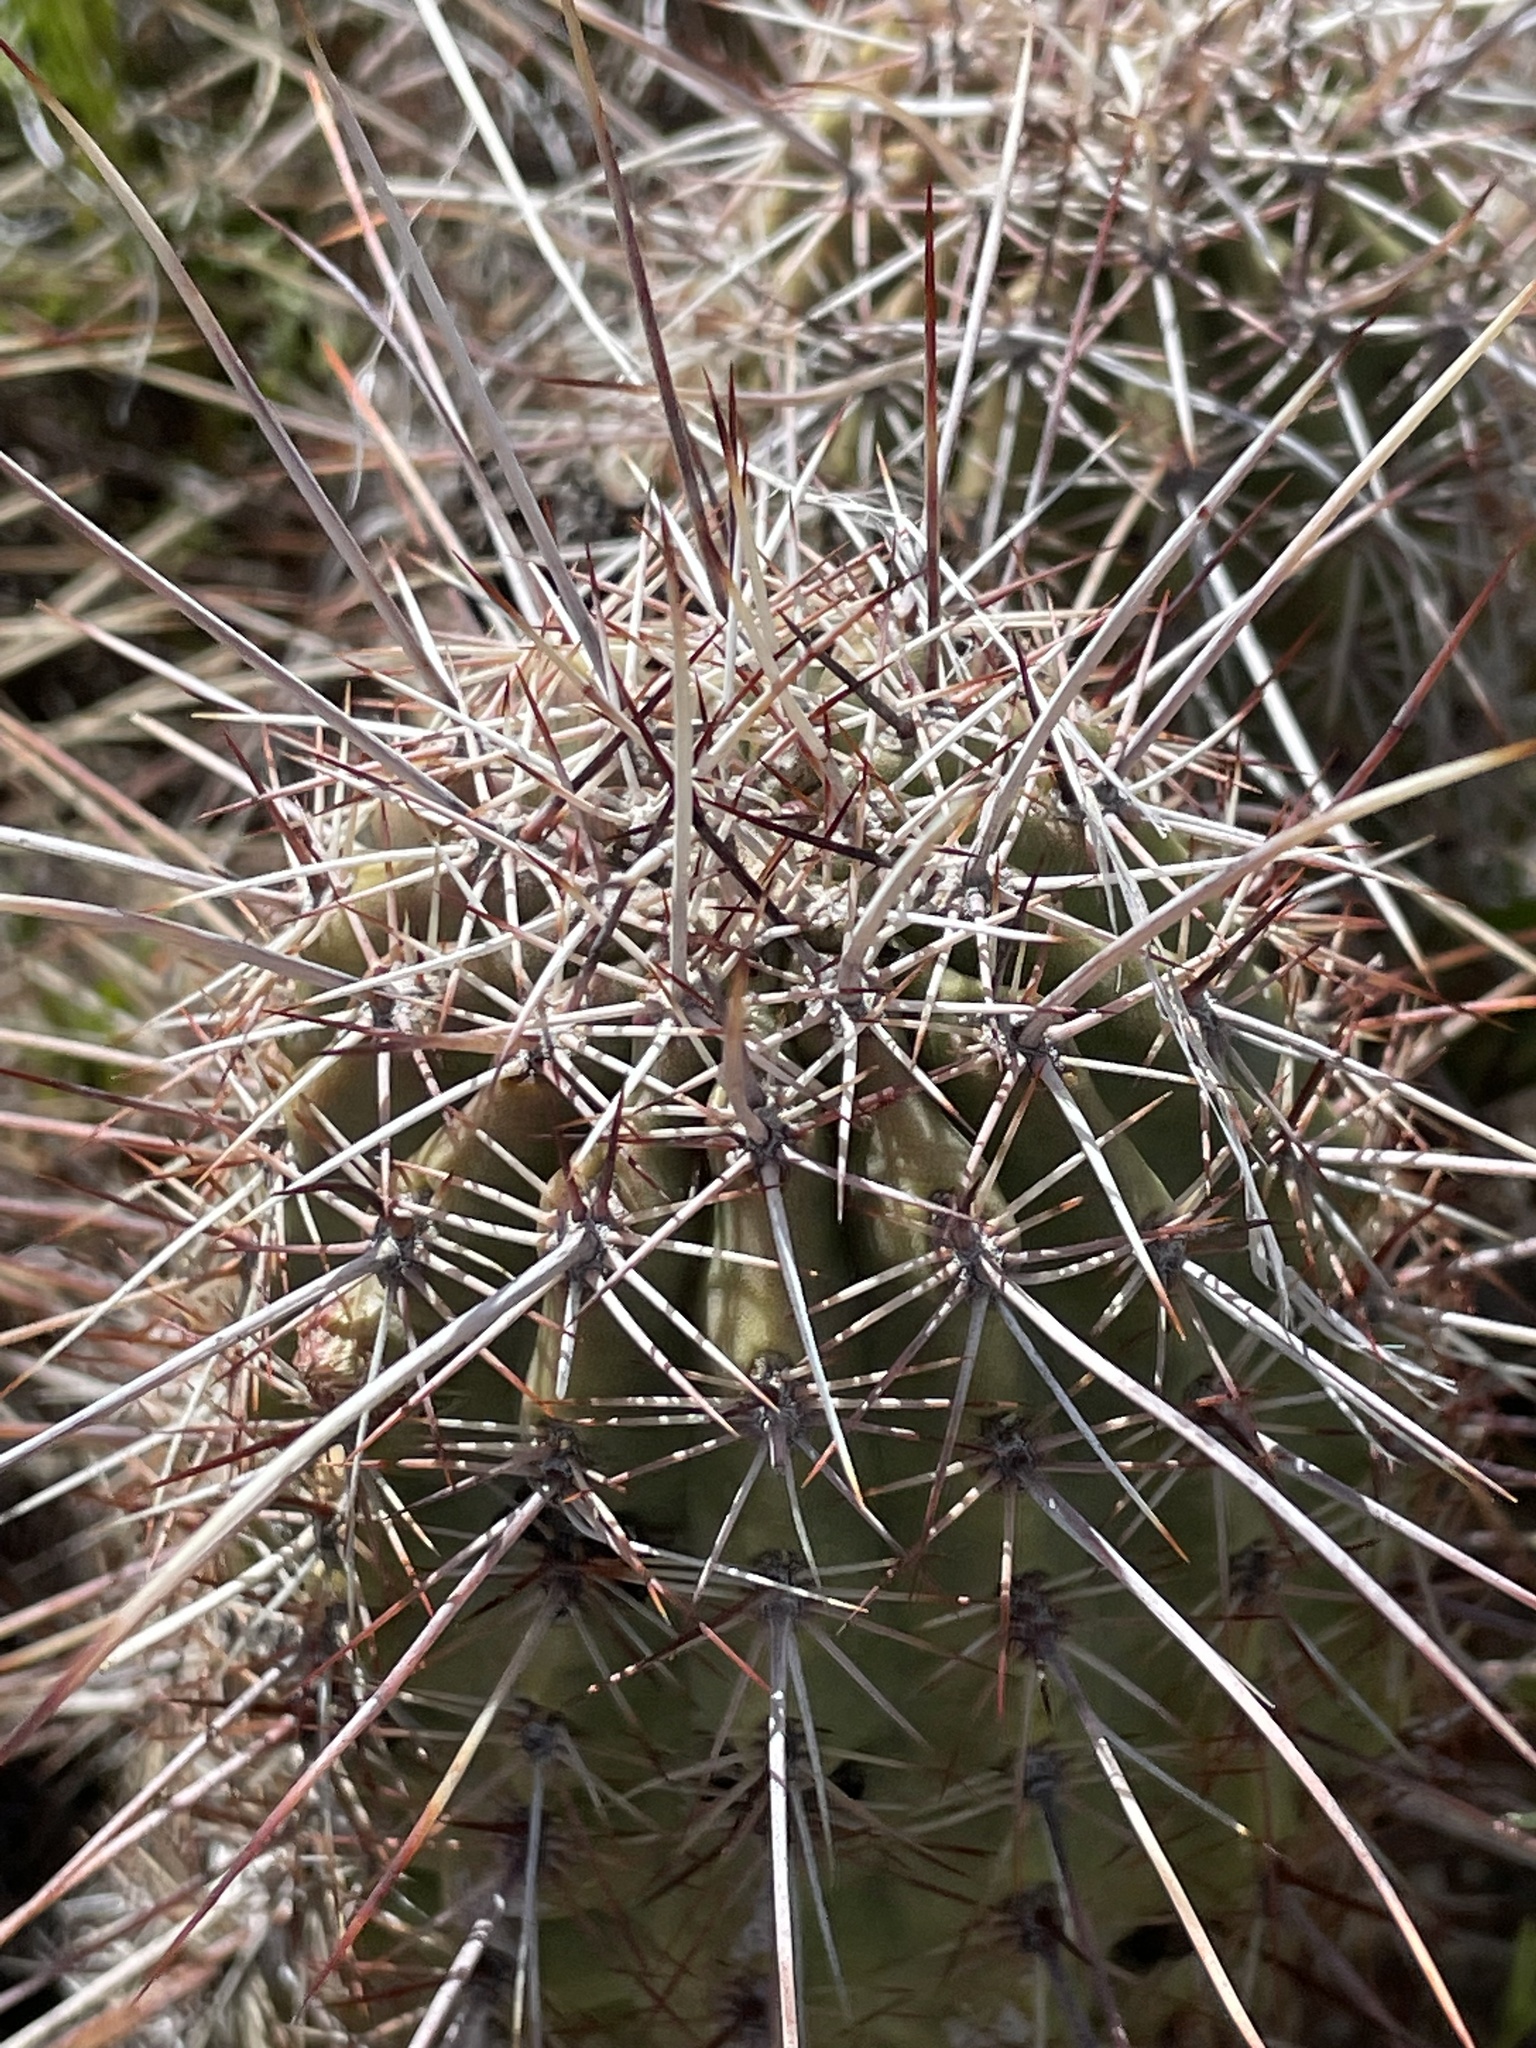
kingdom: Plantae
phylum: Tracheophyta
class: Magnoliopsida
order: Caryophyllales
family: Cactaceae
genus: Echinocereus
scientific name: Echinocereus bonkerae
